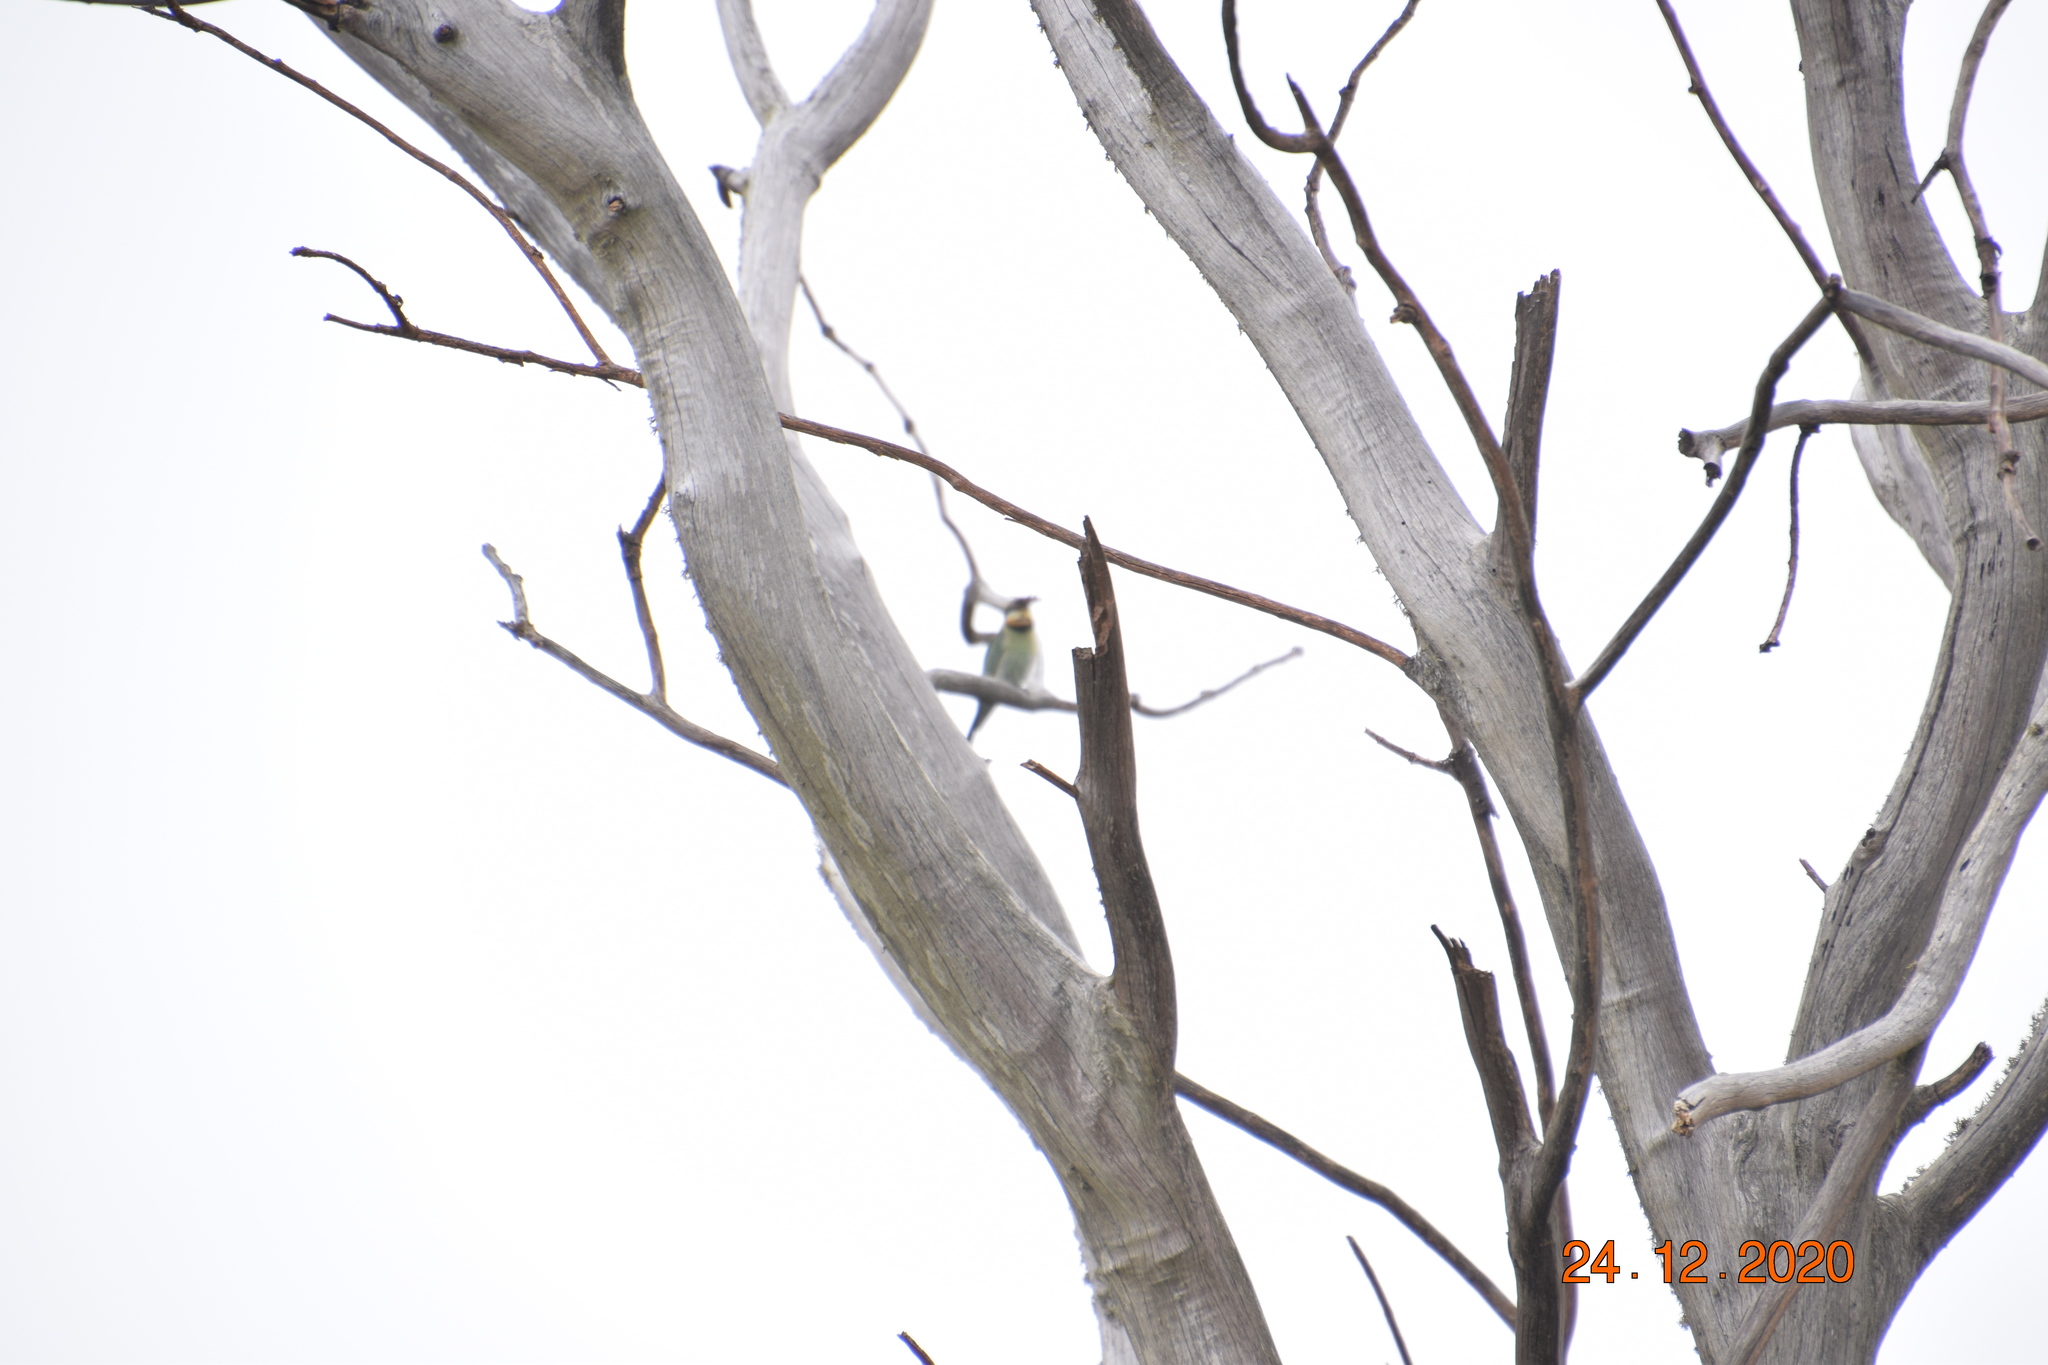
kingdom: Animalia
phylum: Chordata
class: Aves
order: Coraciiformes
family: Meropidae
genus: Merops
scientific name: Merops ornatus
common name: Rainbow bee-eater
